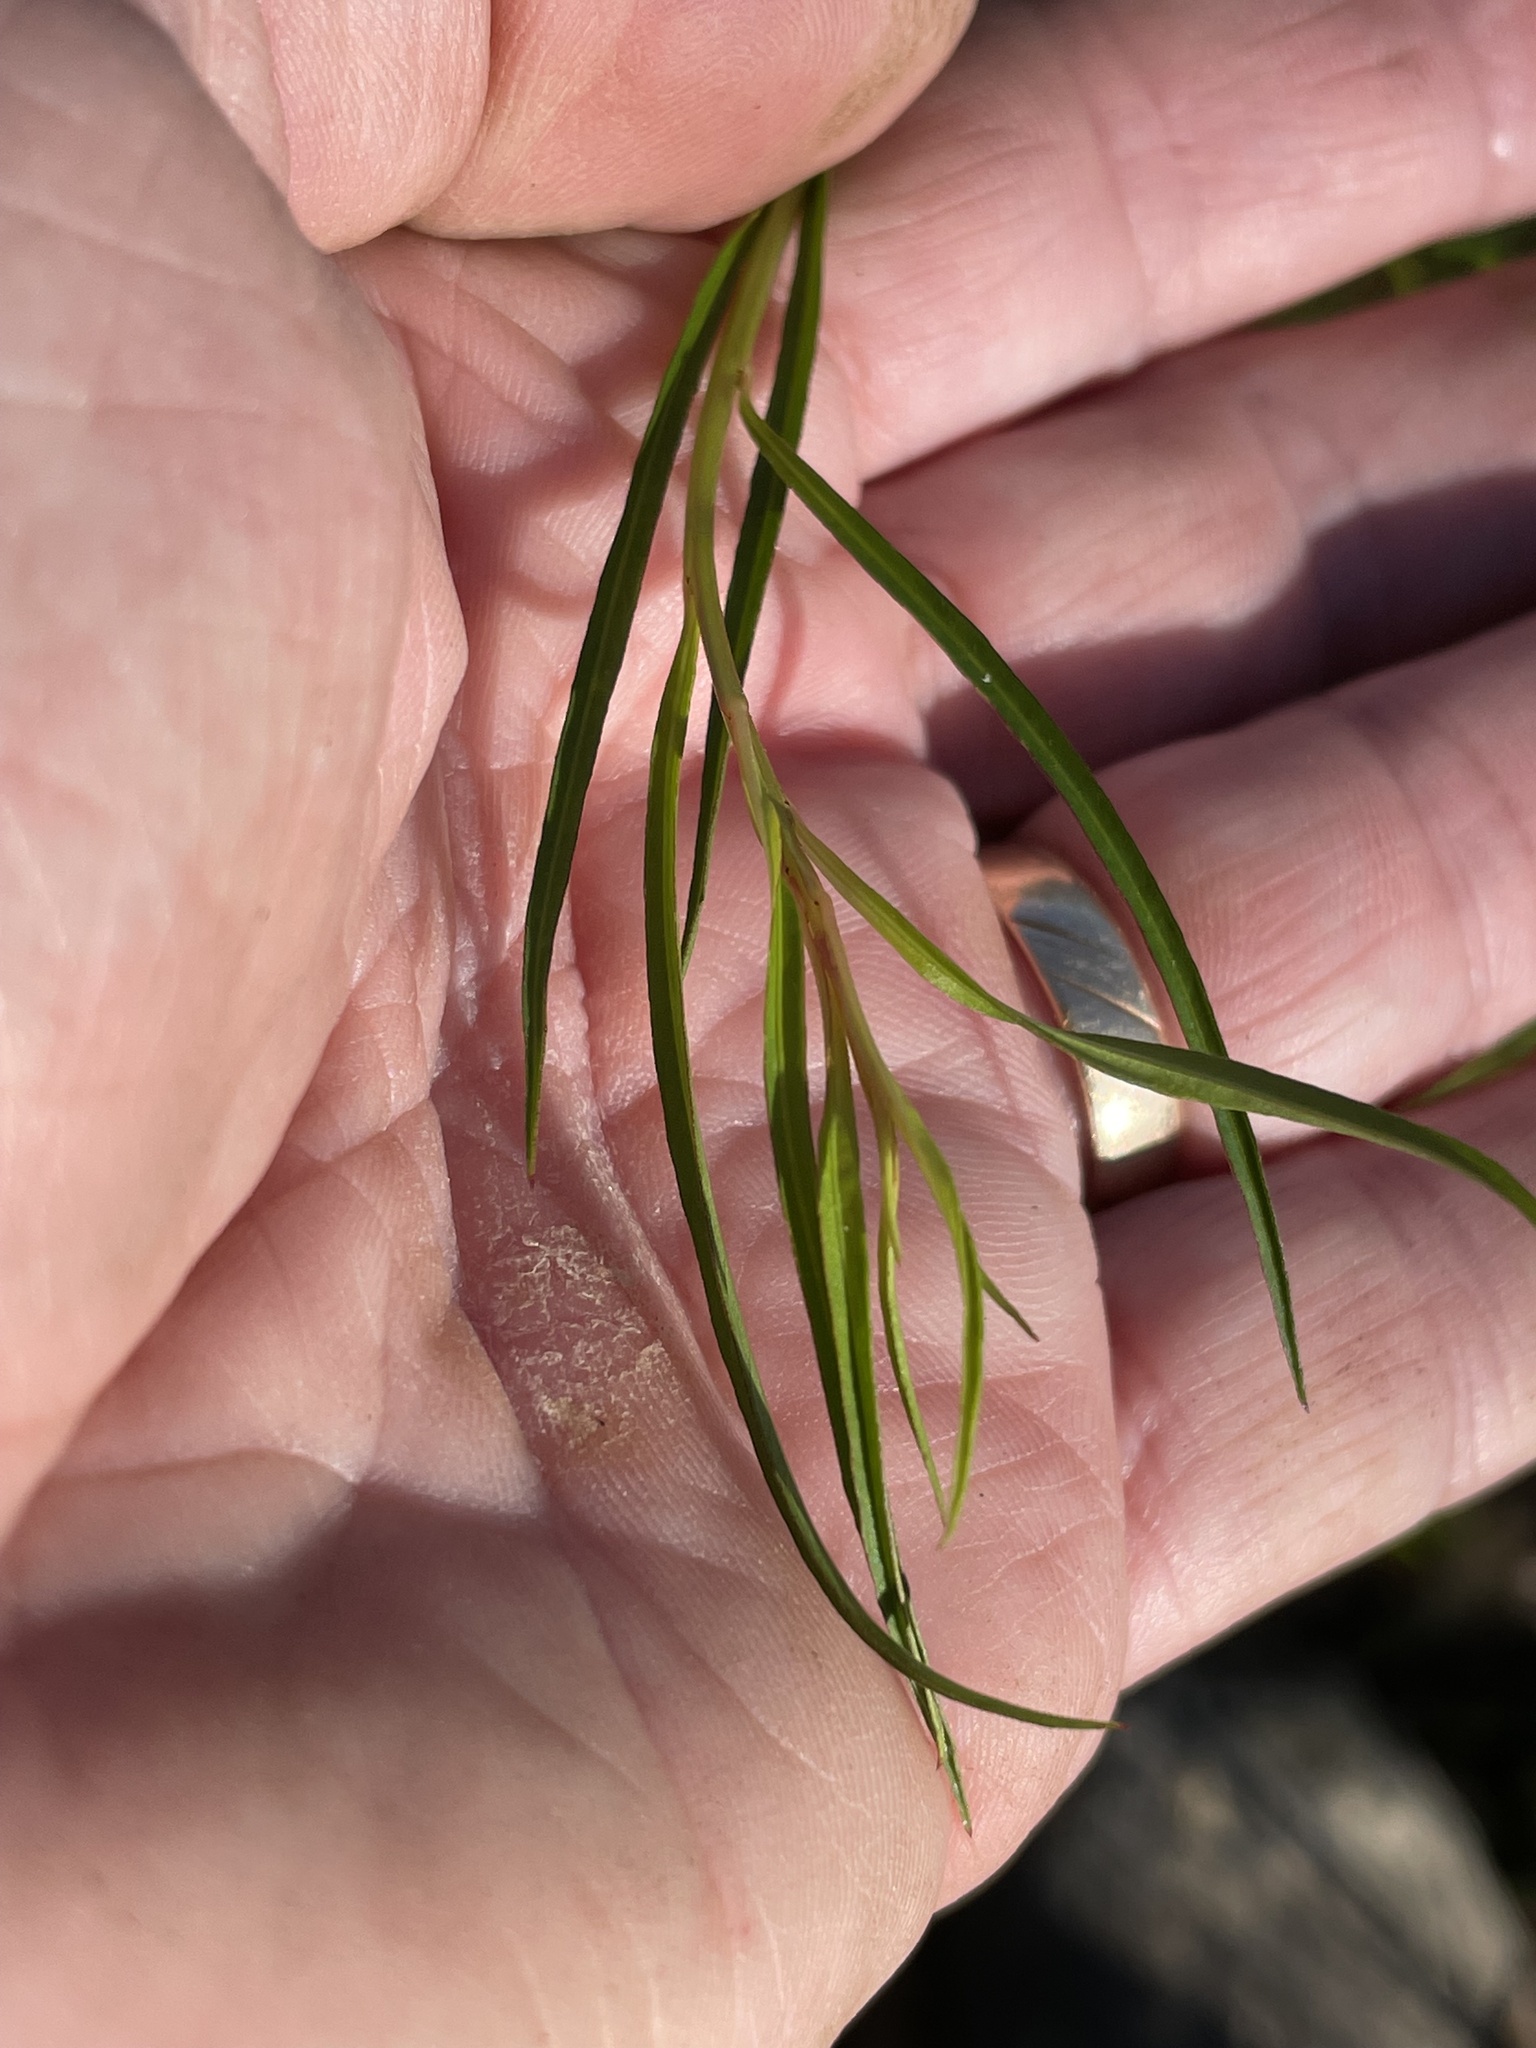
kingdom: Plantae
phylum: Tracheophyta
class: Magnoliopsida
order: Myrtales
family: Onagraceae
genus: Ludwigia
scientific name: Ludwigia linearis
